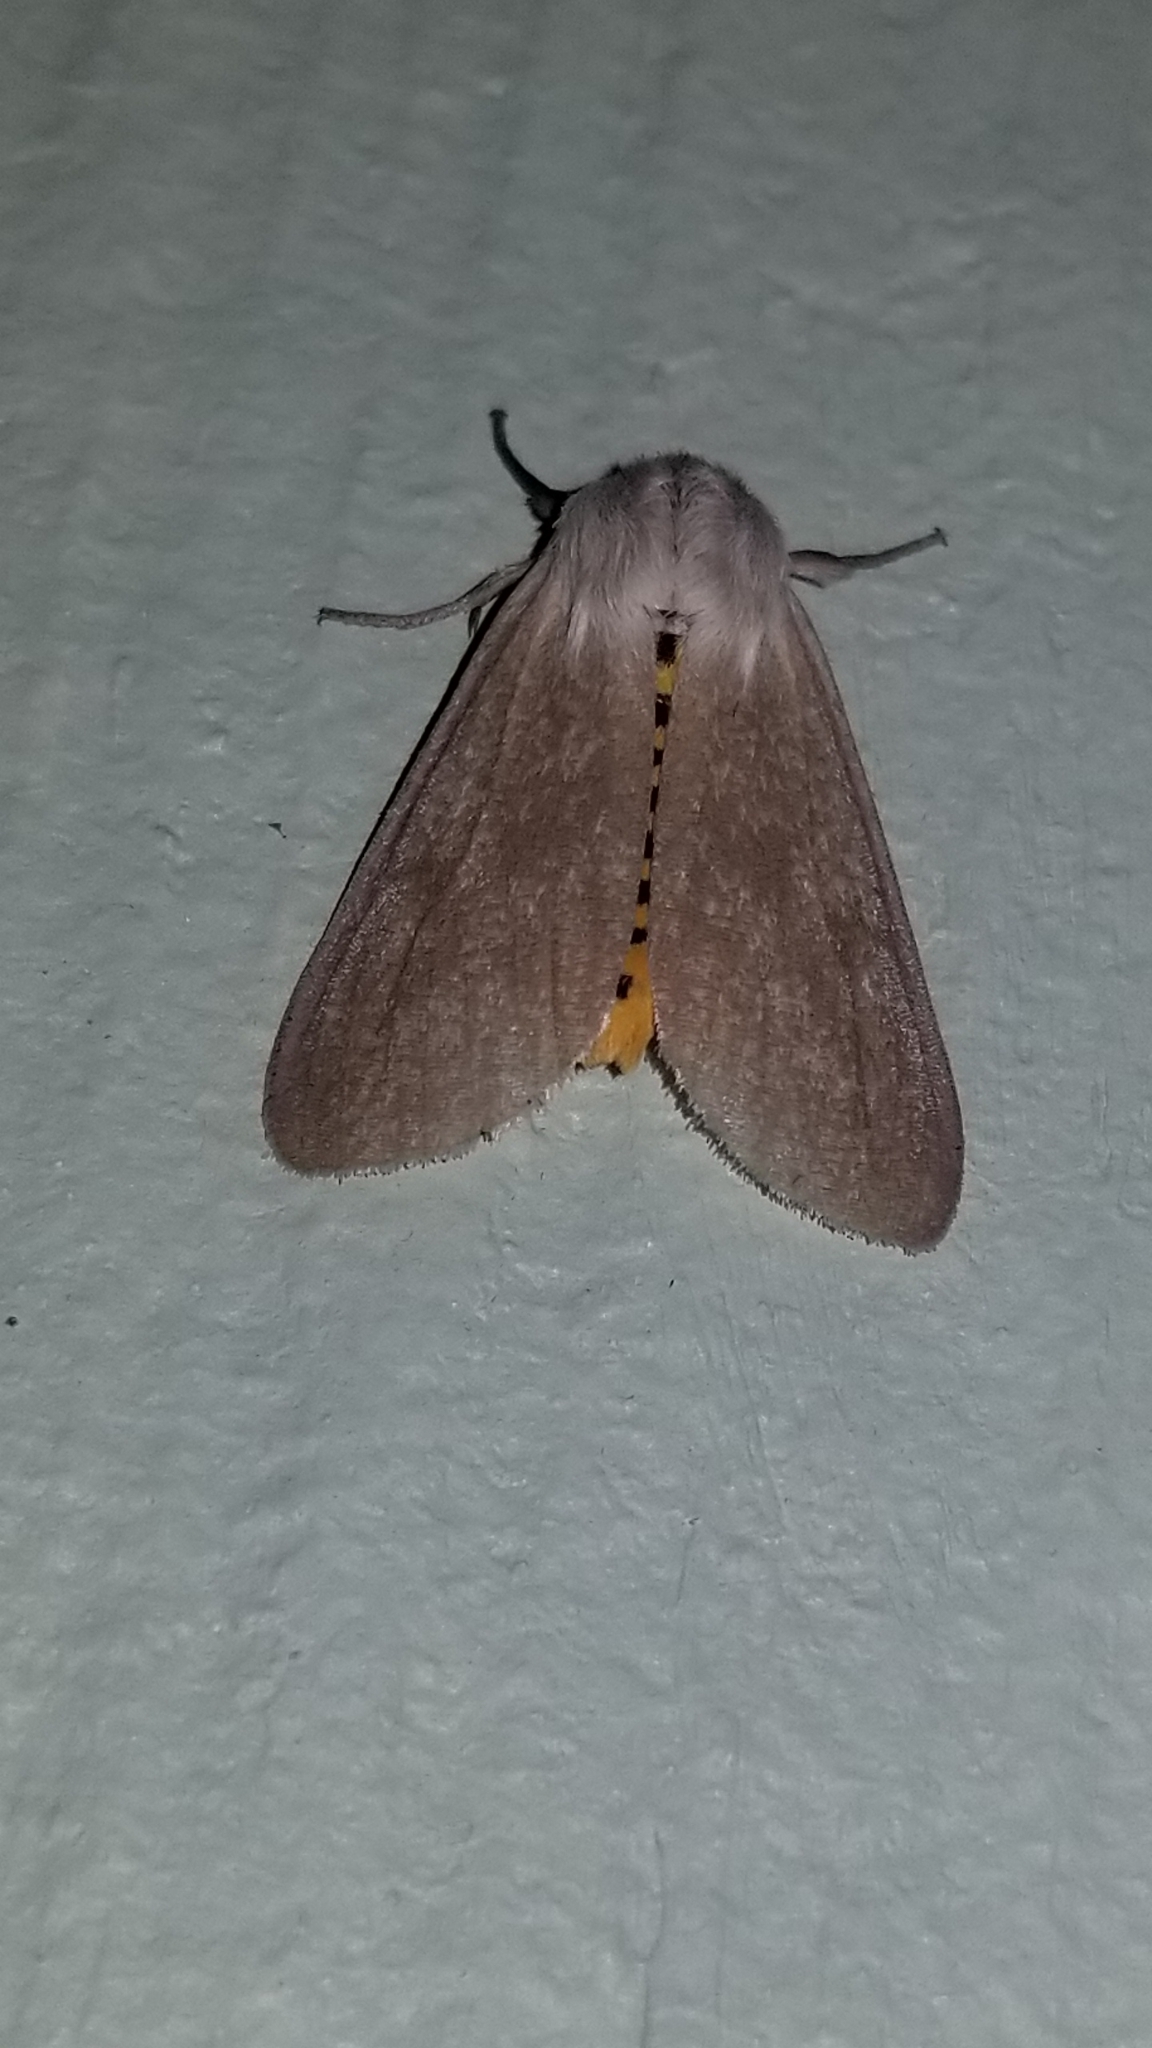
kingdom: Animalia
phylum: Arthropoda
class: Insecta
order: Lepidoptera
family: Erebidae
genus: Euchaetes
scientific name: Euchaetes egle
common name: Milkweed tussock moth
